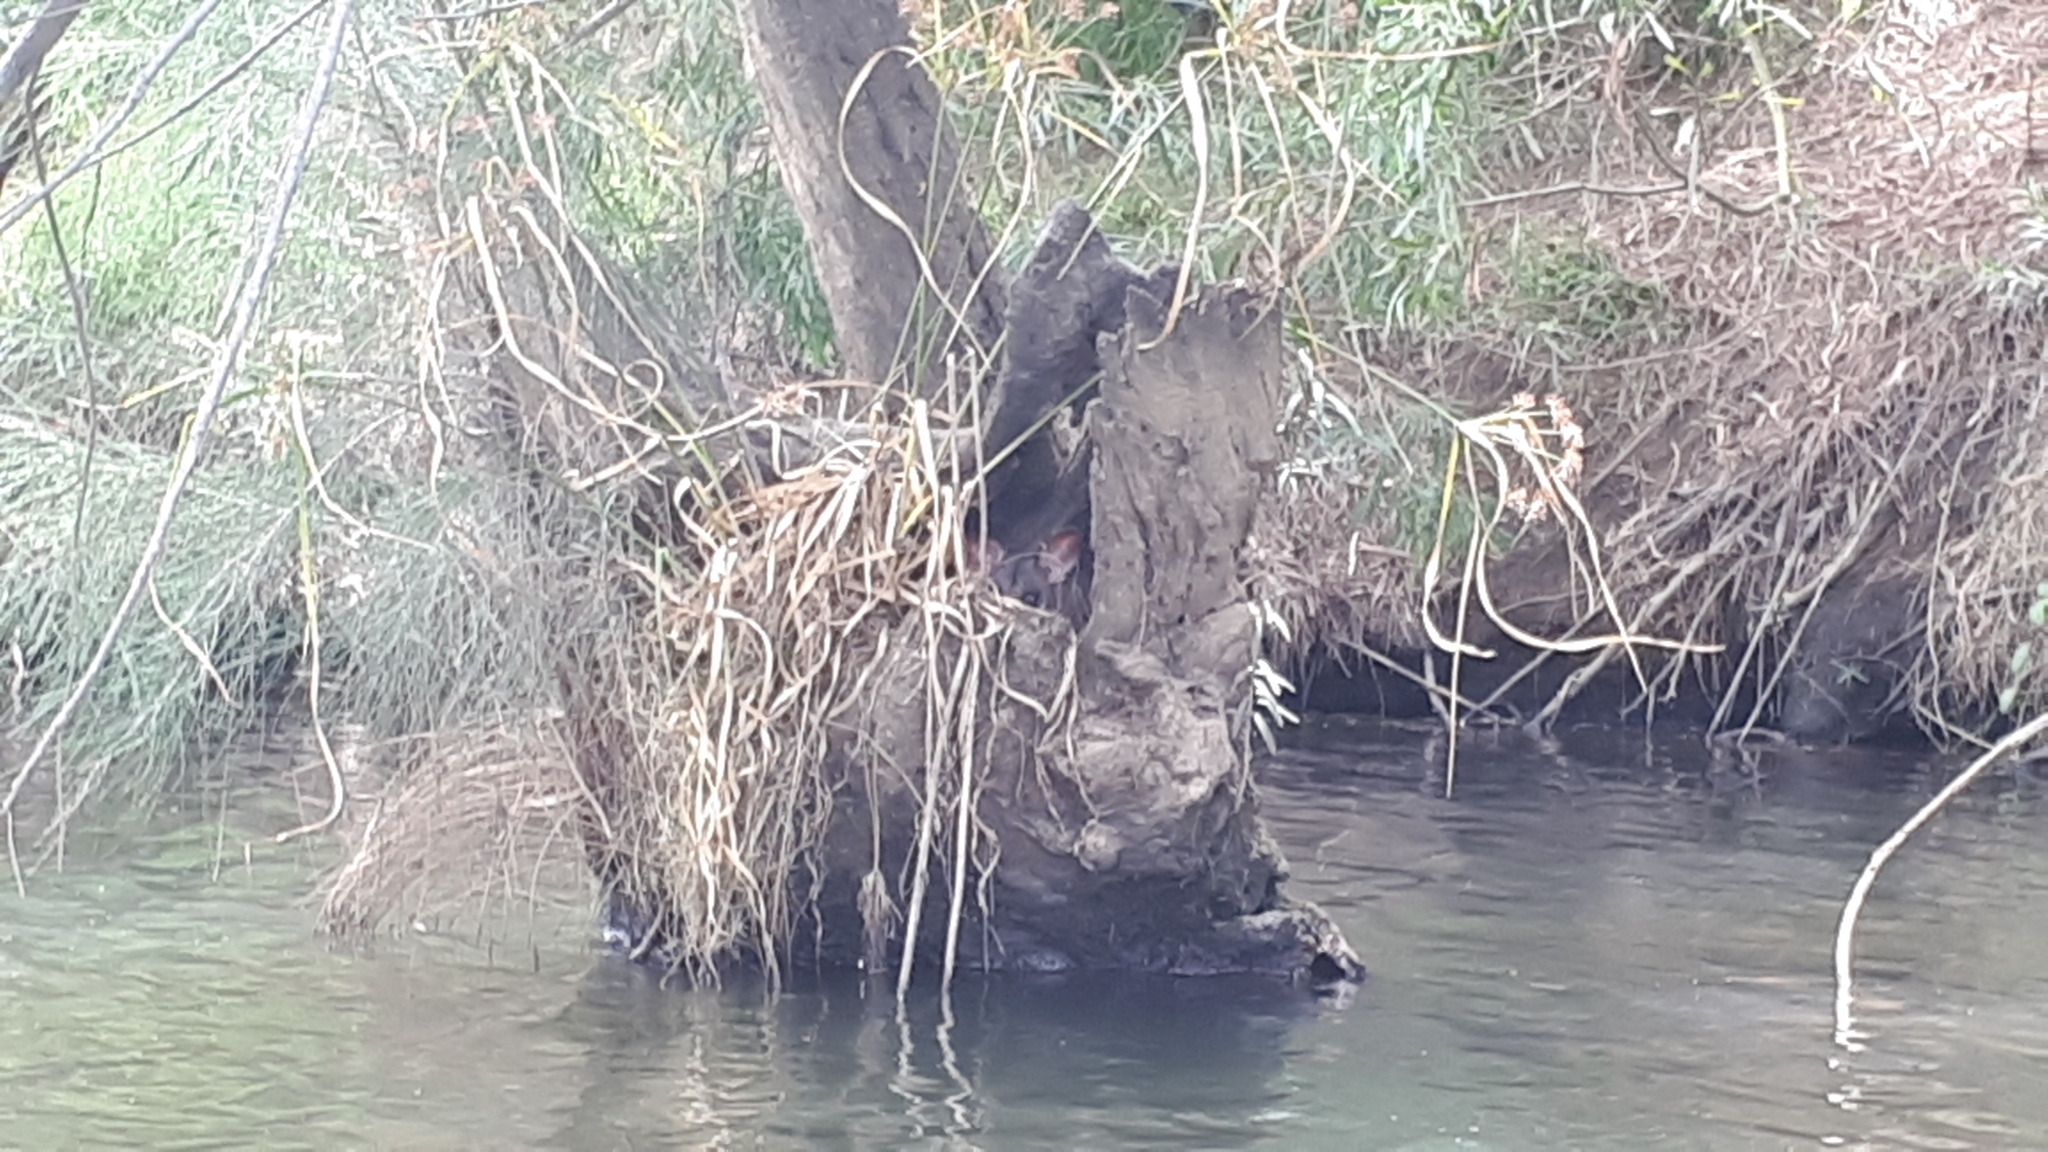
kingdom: Animalia
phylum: Chordata
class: Mammalia
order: Diprotodontia
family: Phalangeridae
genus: Trichosurus
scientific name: Trichosurus vulpecula
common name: Common brushtail
